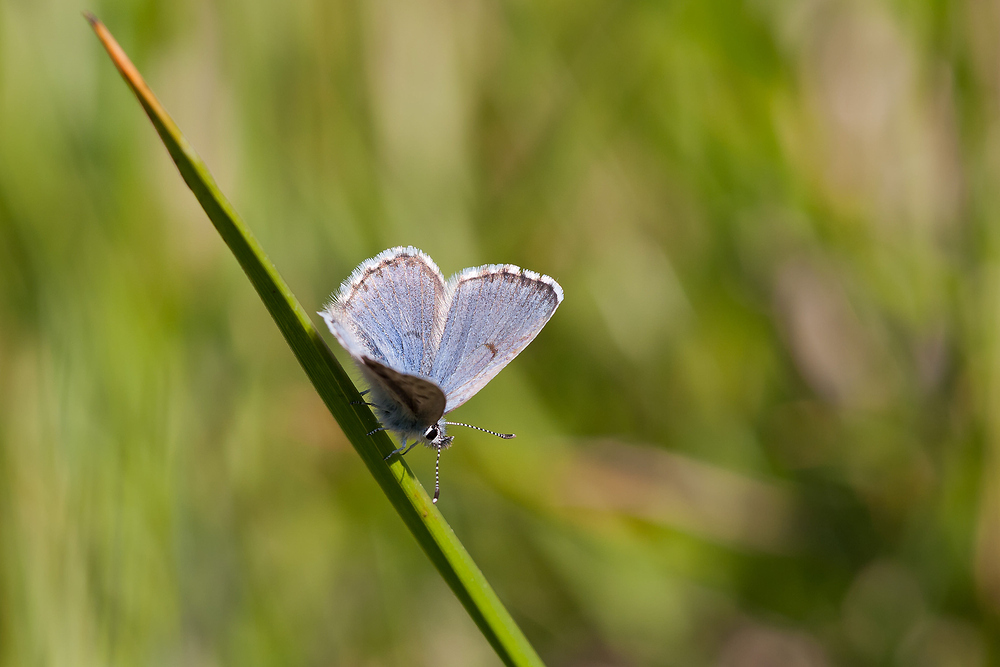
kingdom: Animalia
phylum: Arthropoda
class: Insecta
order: Lepidoptera
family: Lycaenidae
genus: Pseudophilotes
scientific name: Pseudophilotes baton
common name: Baton blue
